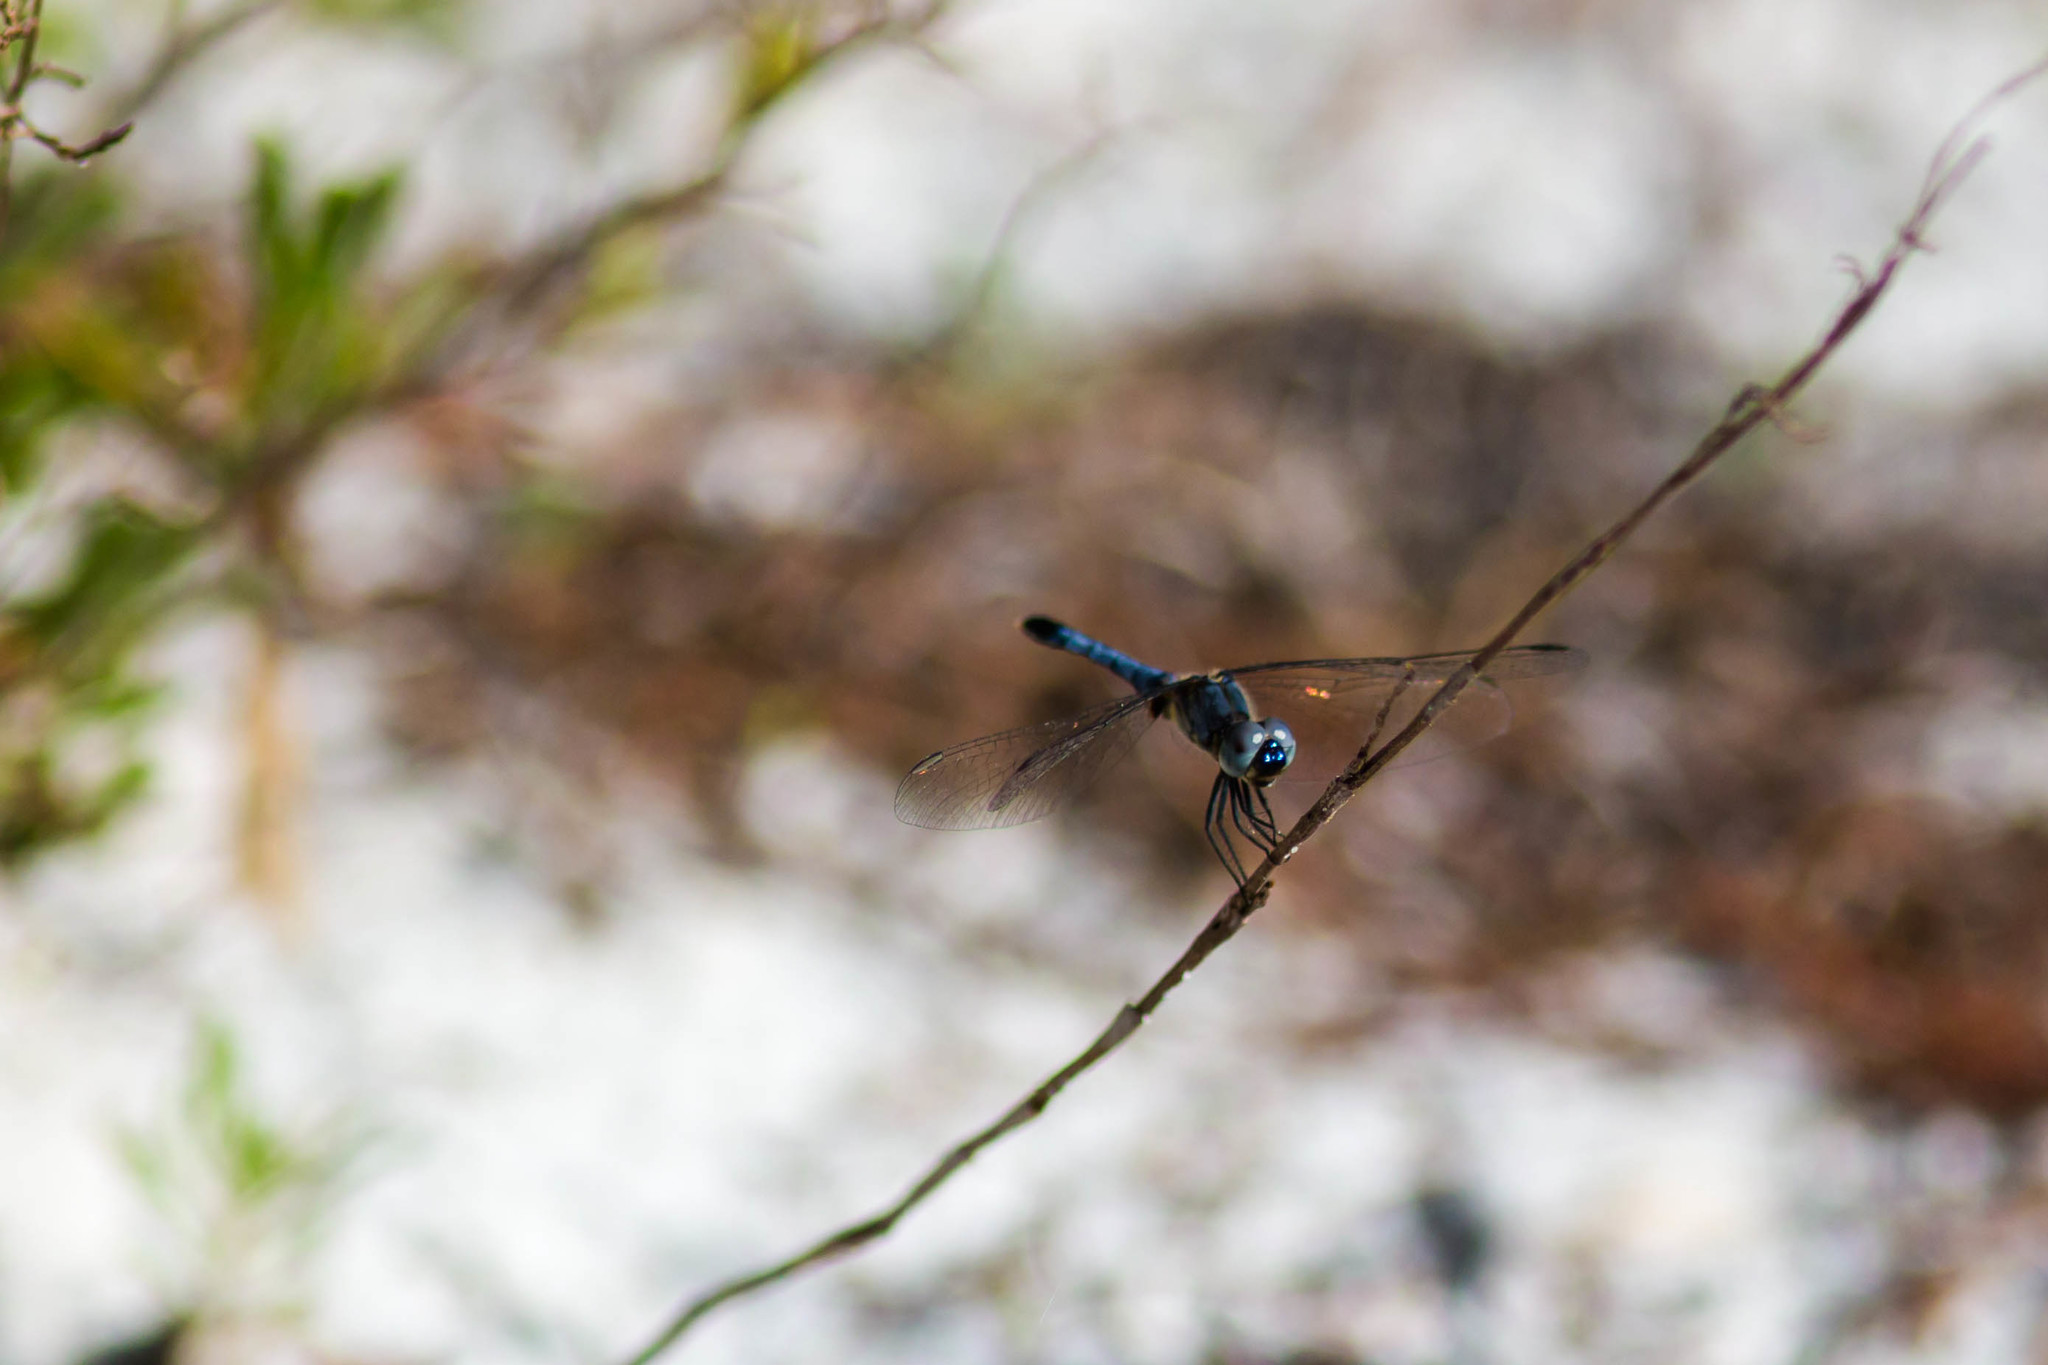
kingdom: Animalia
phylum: Arthropoda
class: Insecta
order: Odonata
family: Libellulidae
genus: Erythrodiplax
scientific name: Erythrodiplax minuscula
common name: Little blue dragonlet
